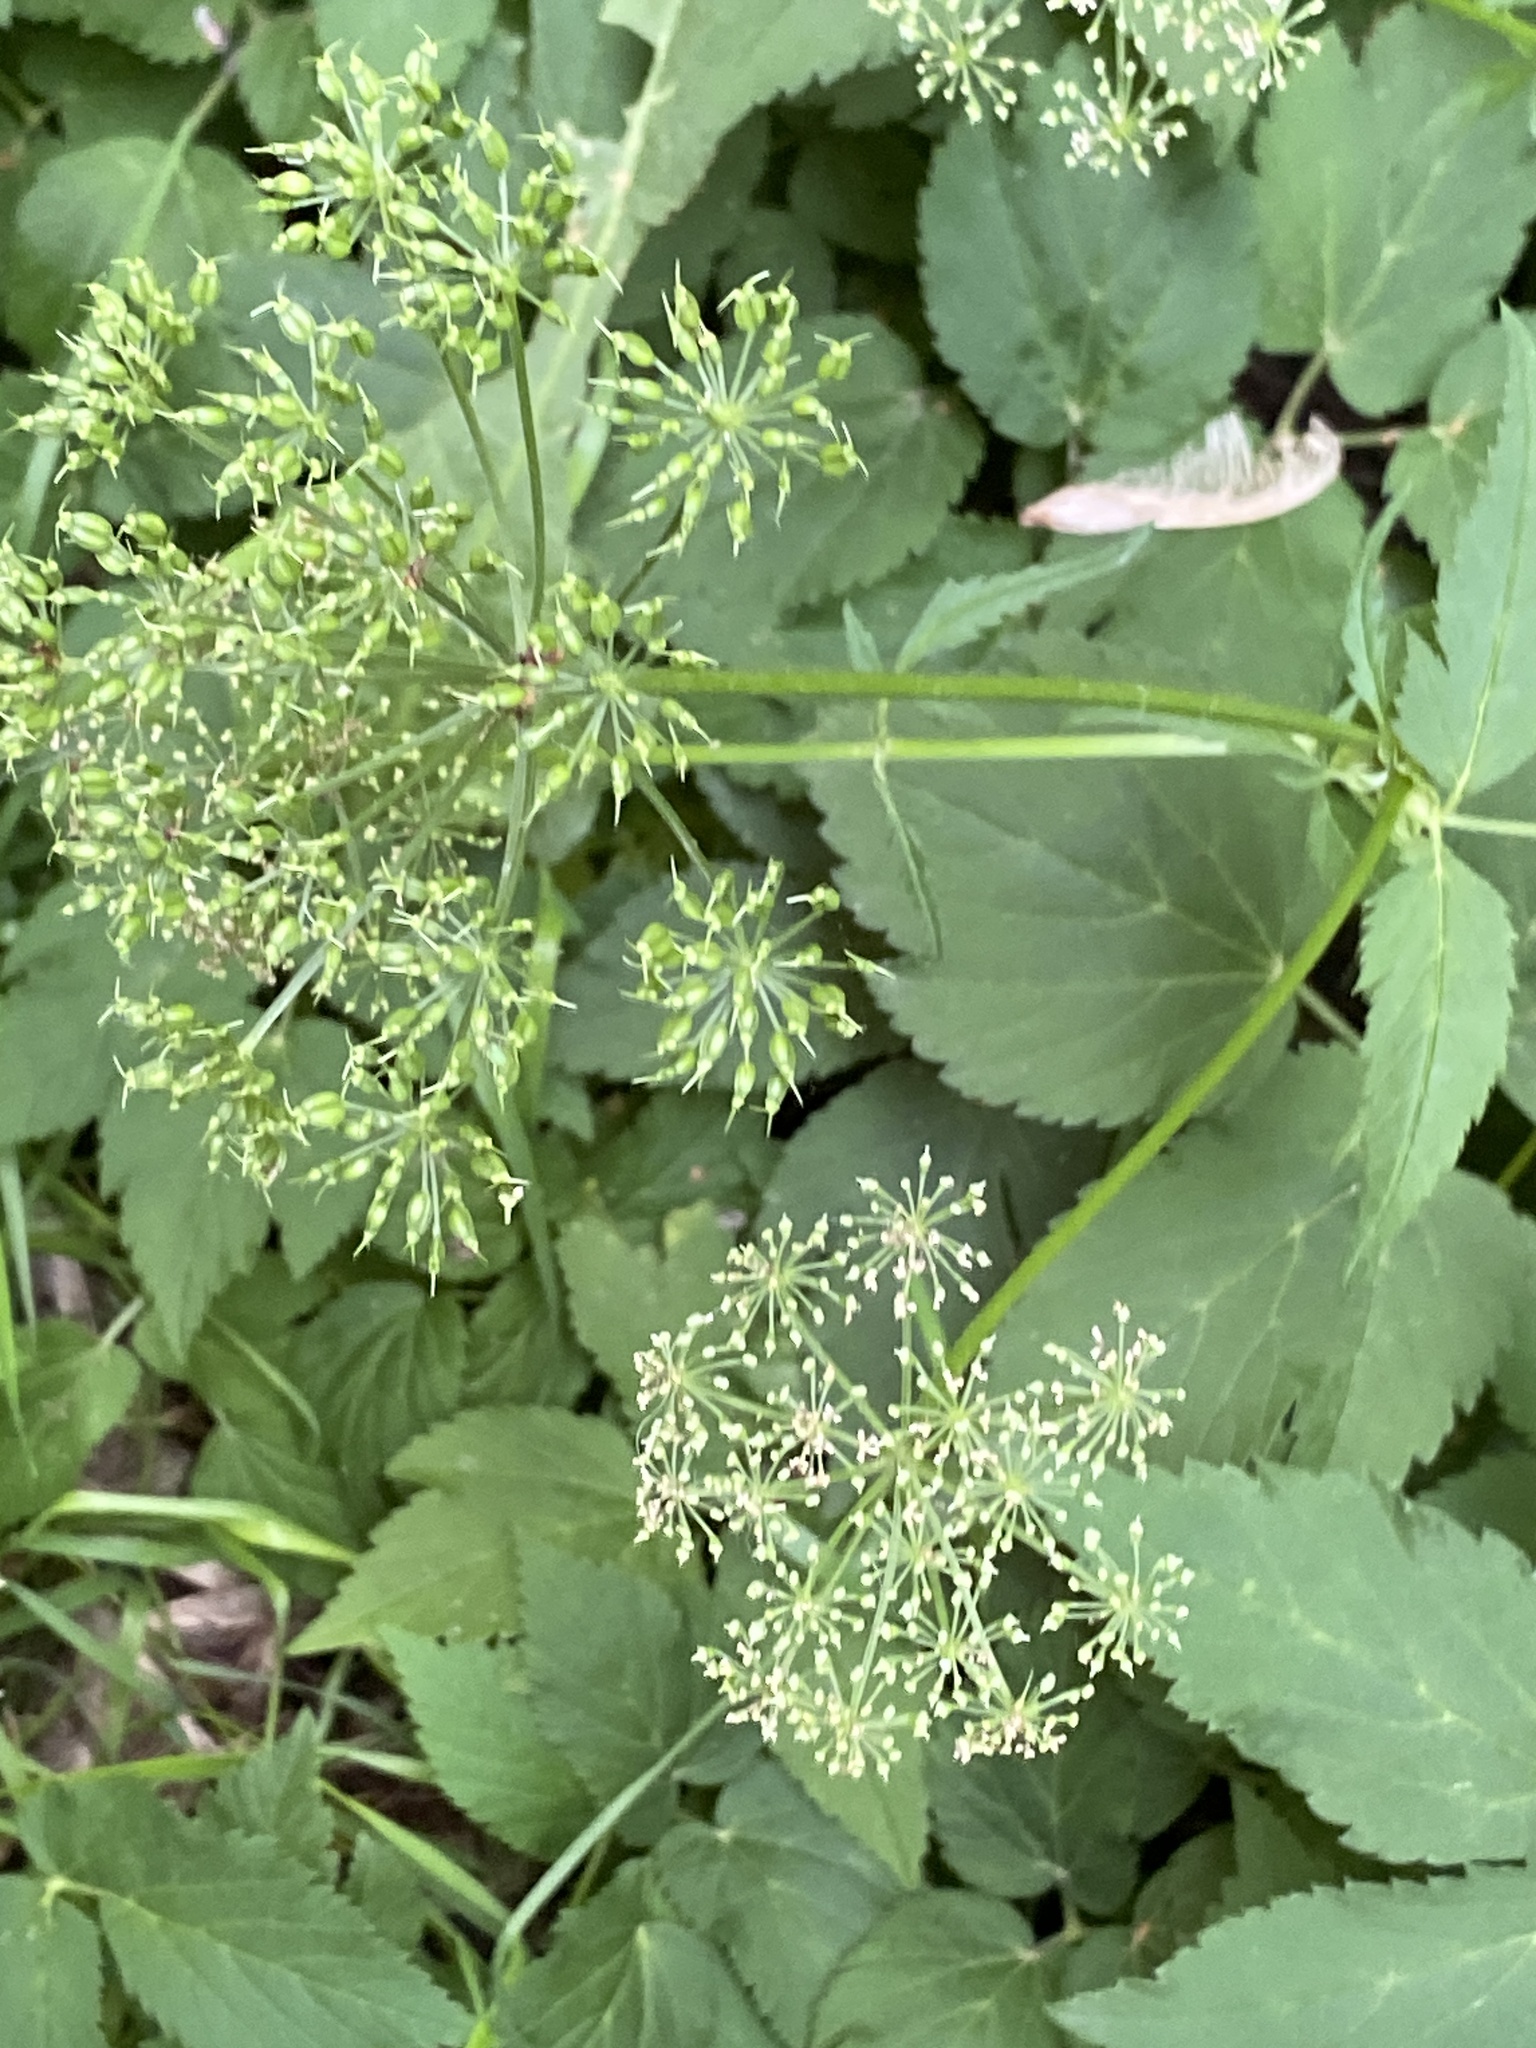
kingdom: Plantae
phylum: Tracheophyta
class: Magnoliopsida
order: Apiales
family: Apiaceae
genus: Aegopodium
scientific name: Aegopodium podagraria
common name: Ground-elder
